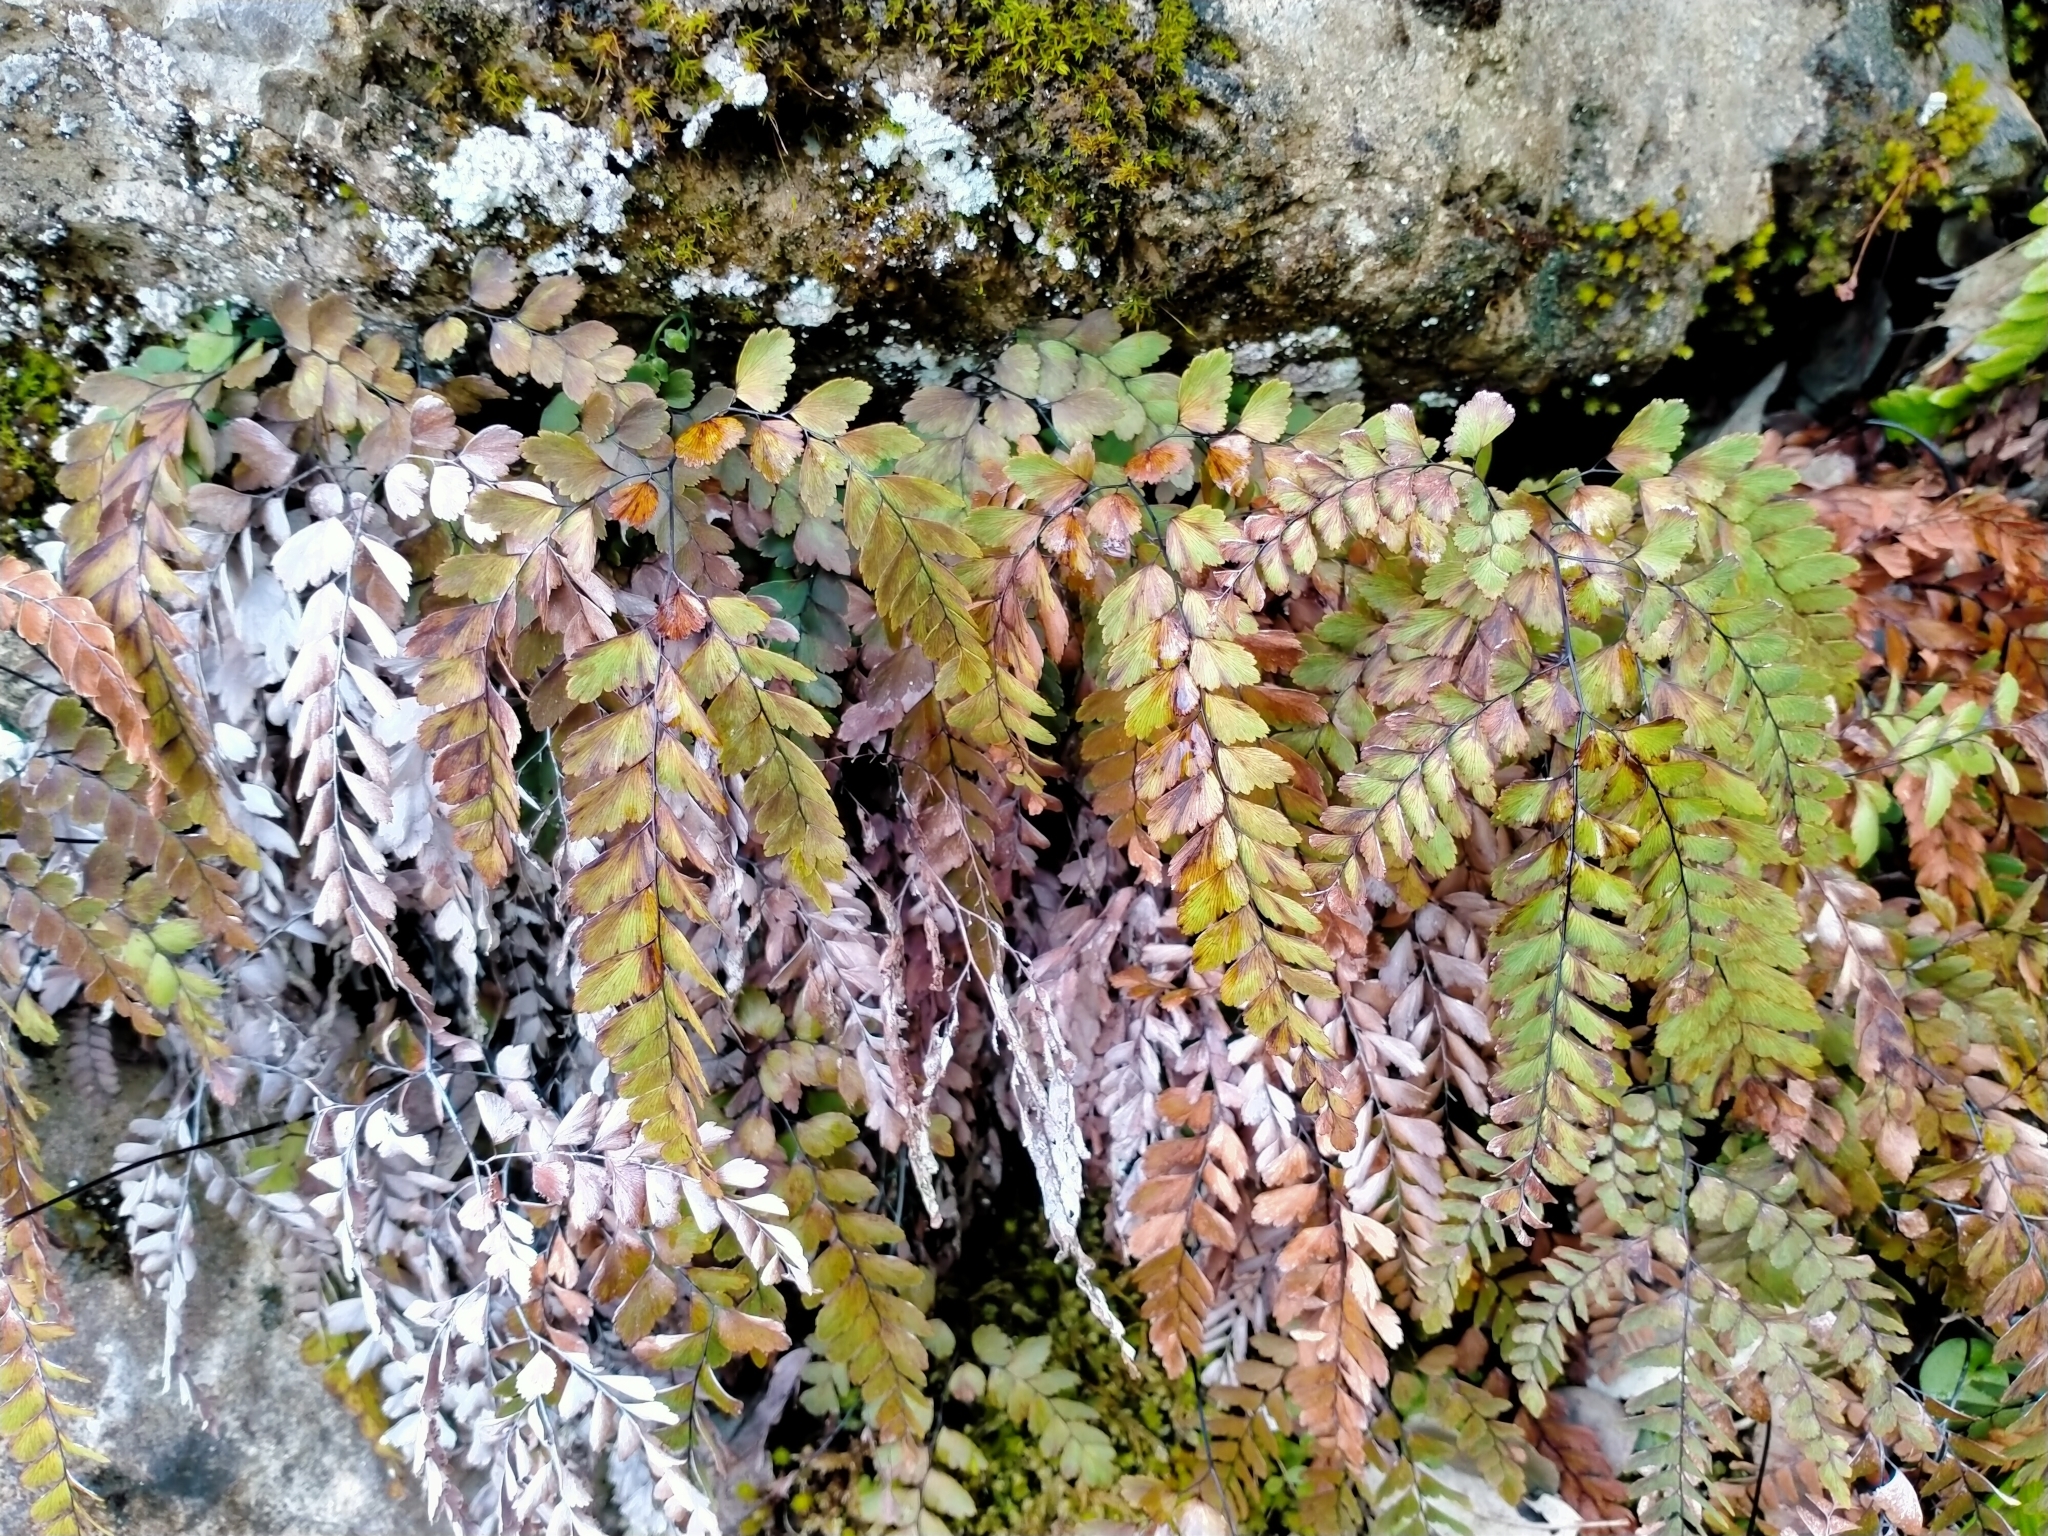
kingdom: Plantae
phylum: Tracheophyta
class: Polypodiopsida
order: Polypodiales
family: Pteridaceae
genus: Adiantum
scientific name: Adiantum cunninghamii
